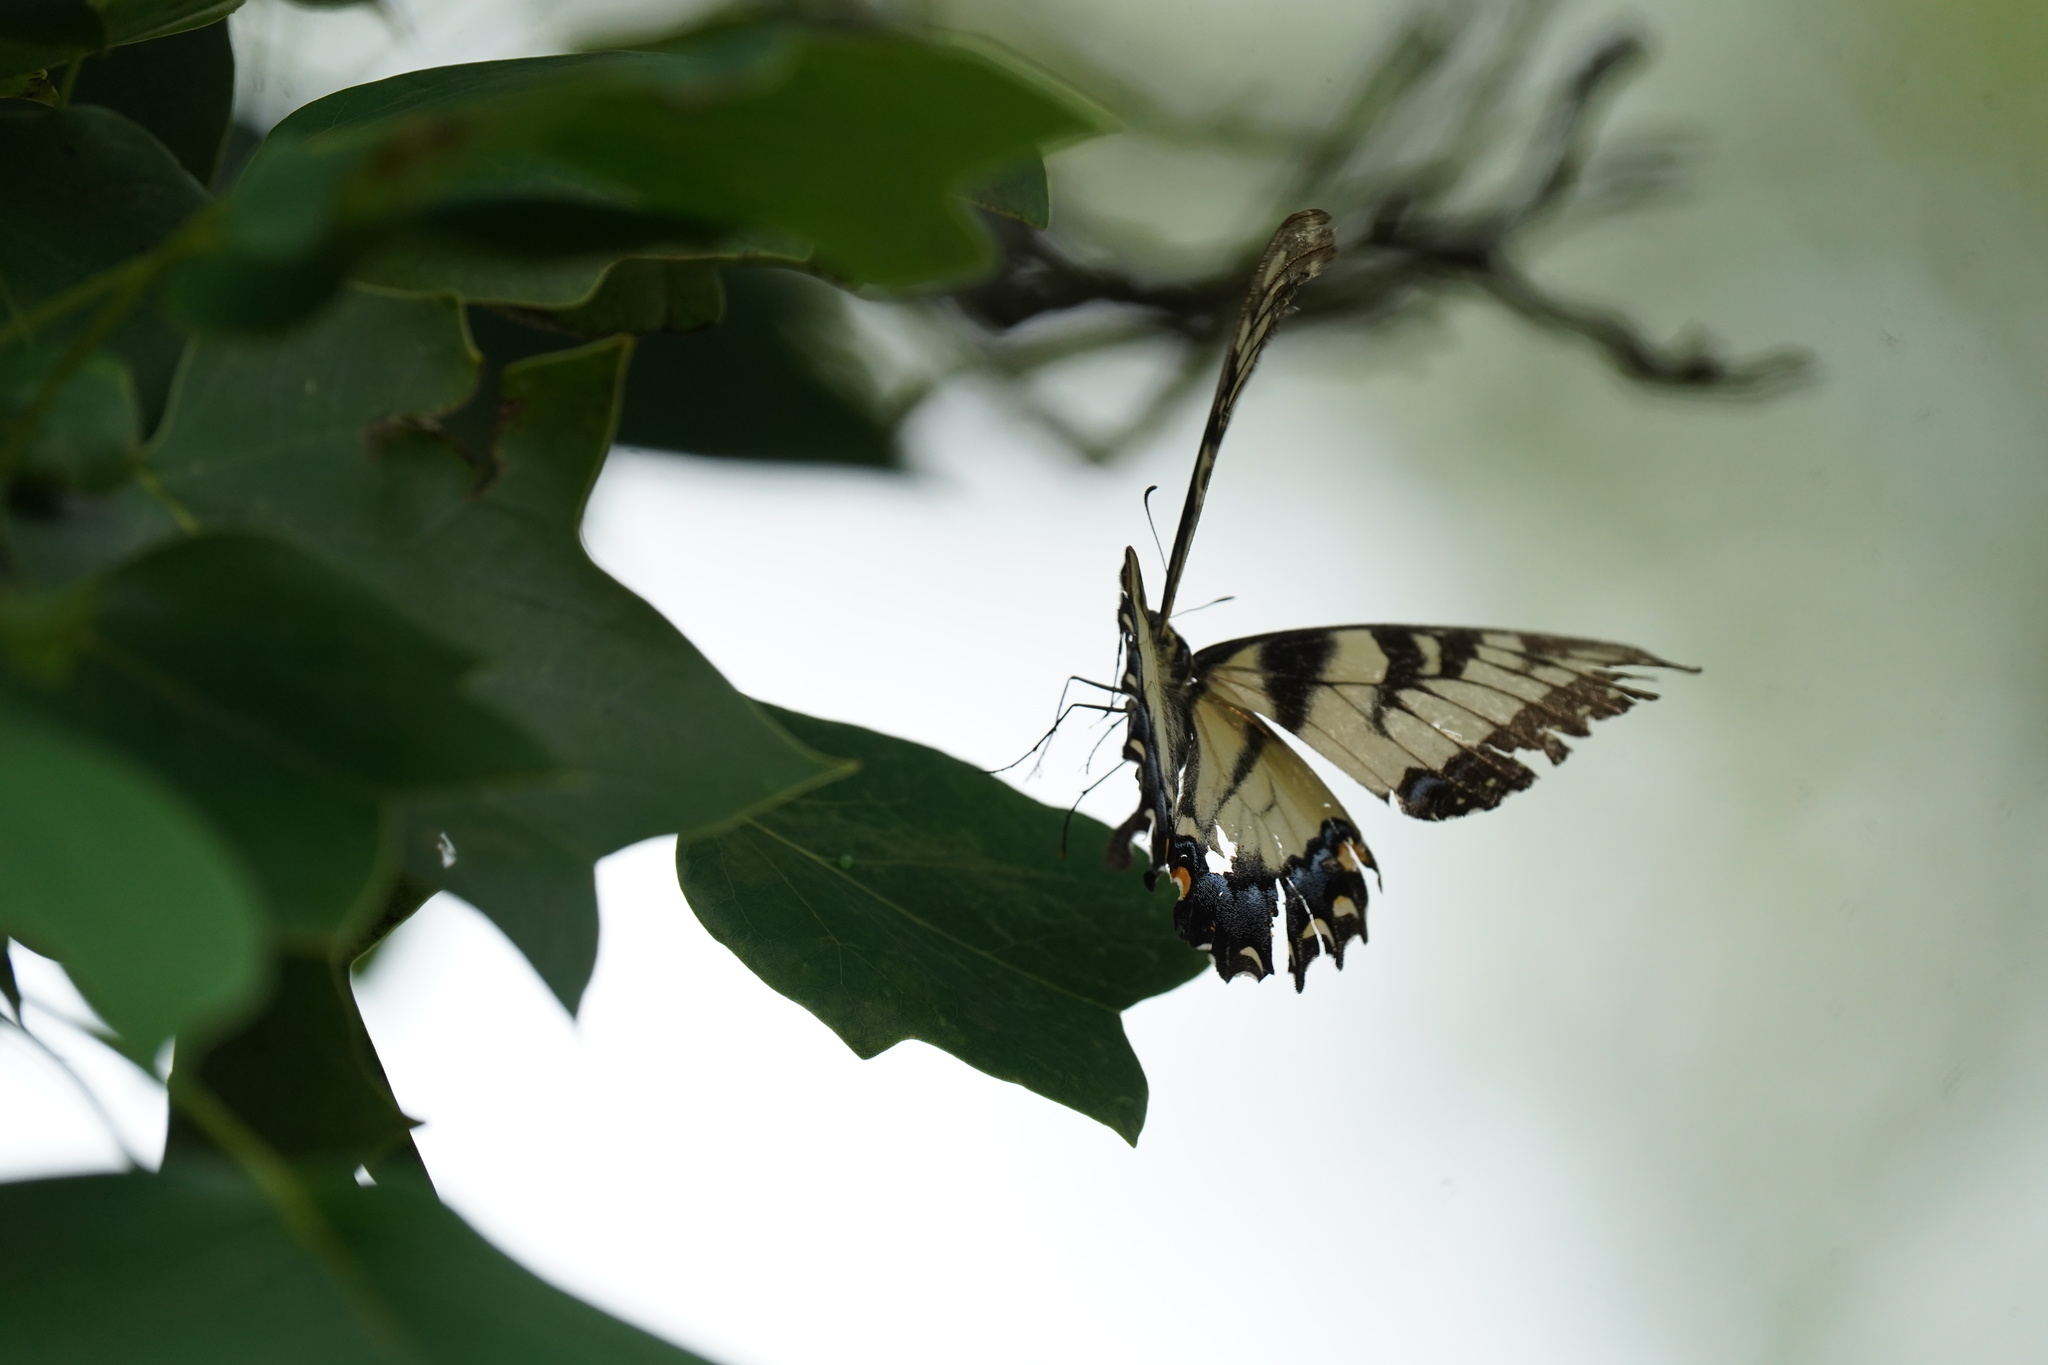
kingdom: Animalia
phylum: Arthropoda
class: Insecta
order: Lepidoptera
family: Papilionidae
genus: Papilio
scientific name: Papilio glaucus
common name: Tiger swallowtail
